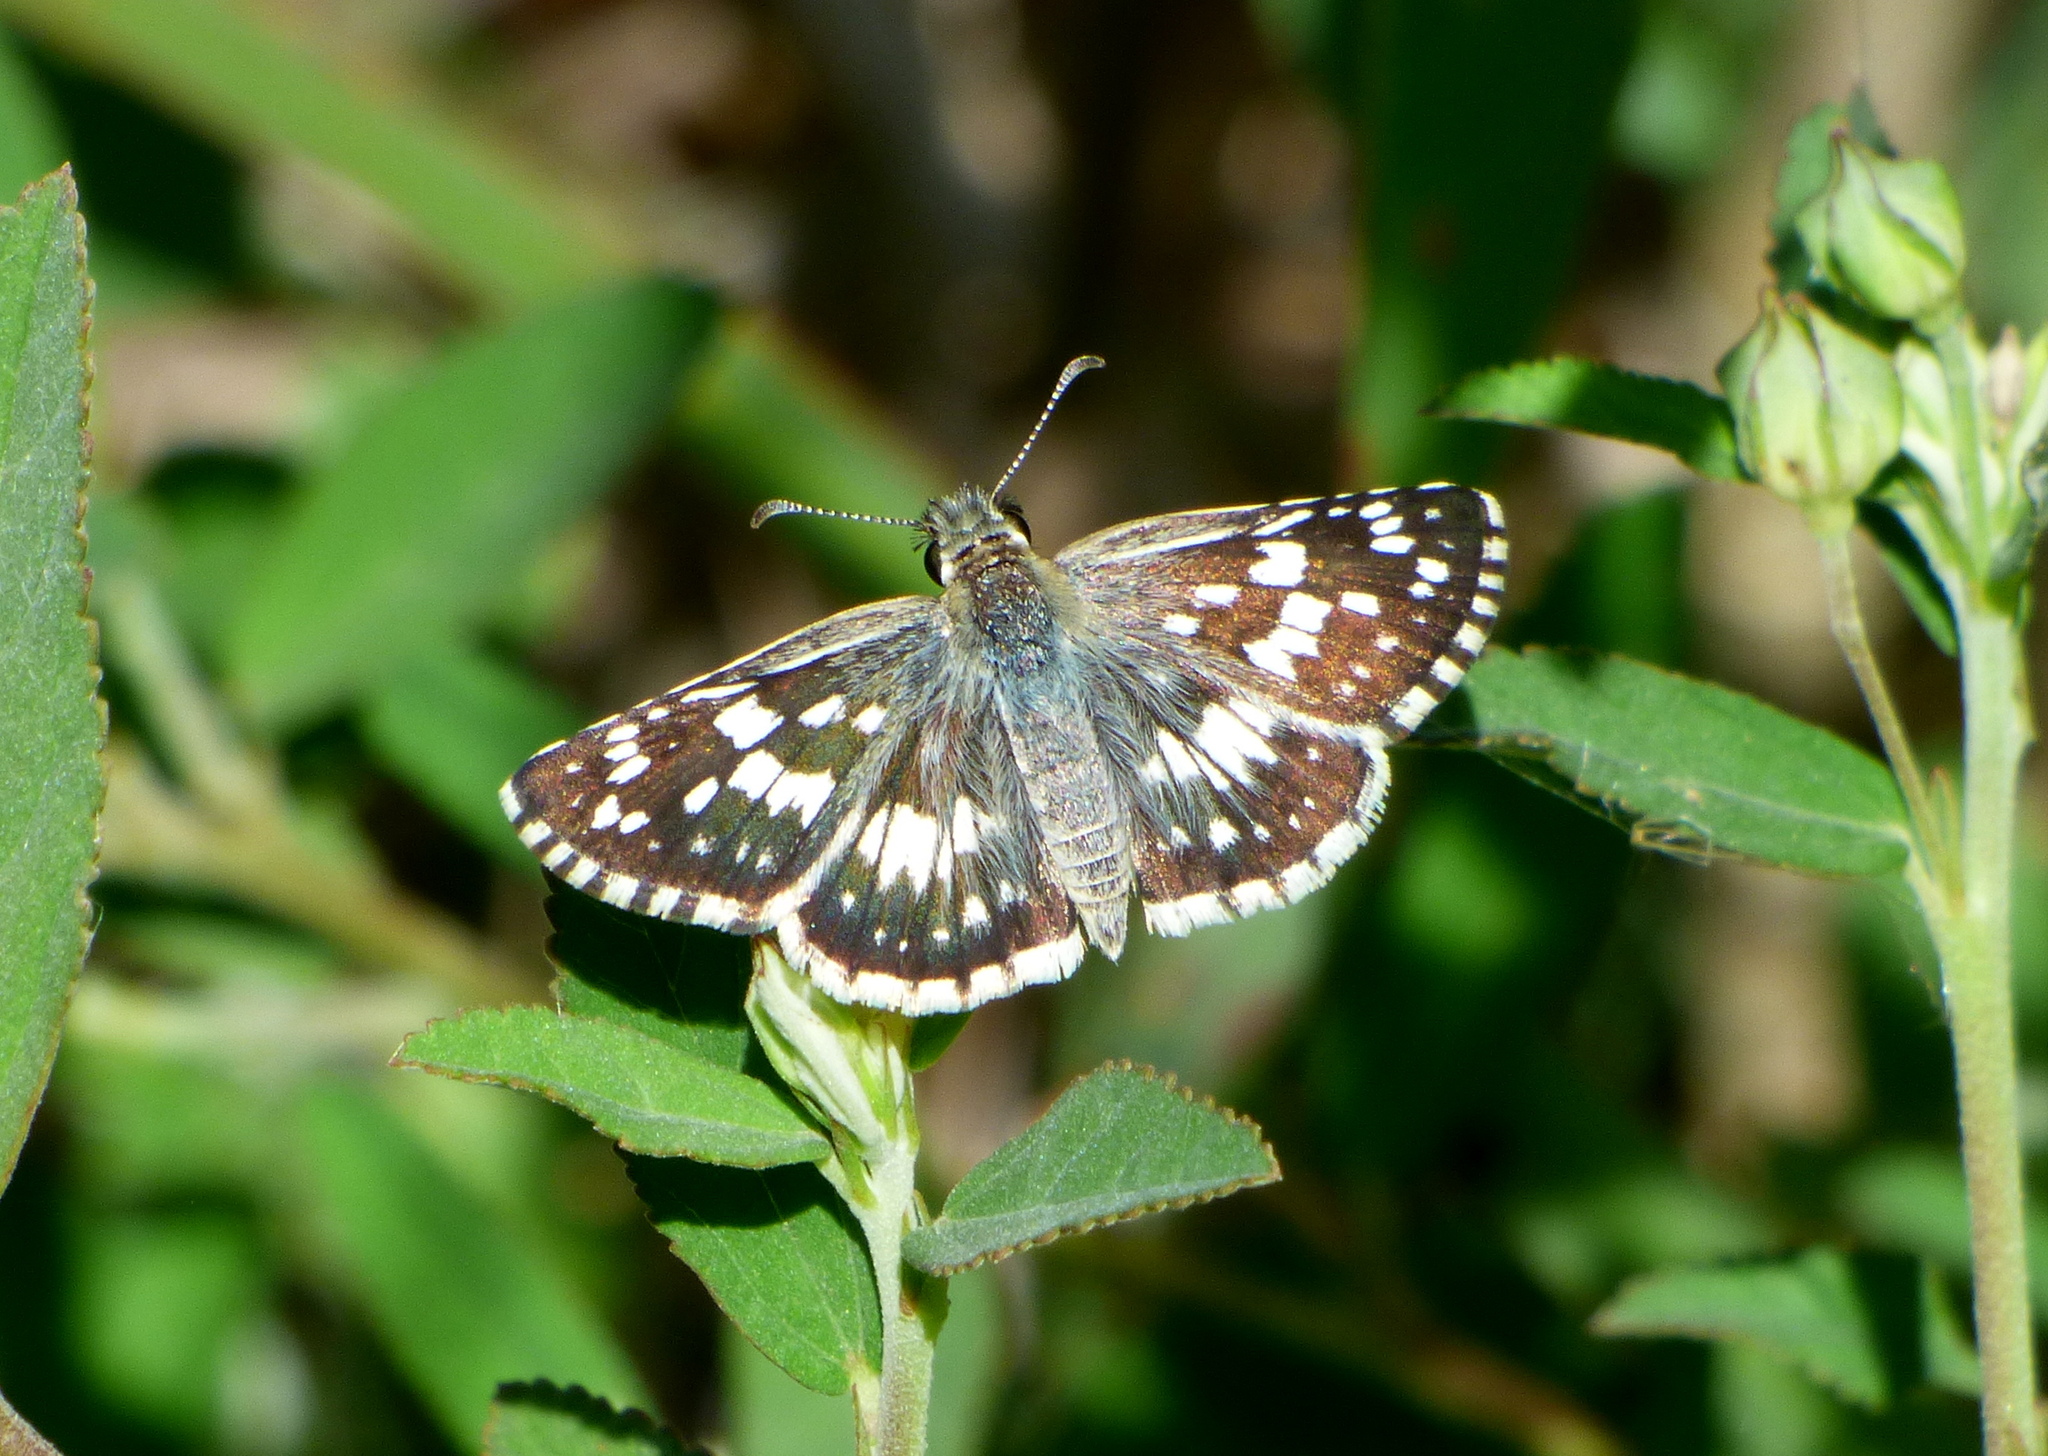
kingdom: Animalia
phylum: Arthropoda
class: Insecta
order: Lepidoptera
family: Hesperiidae
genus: Burnsius
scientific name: Burnsius orcynoides
